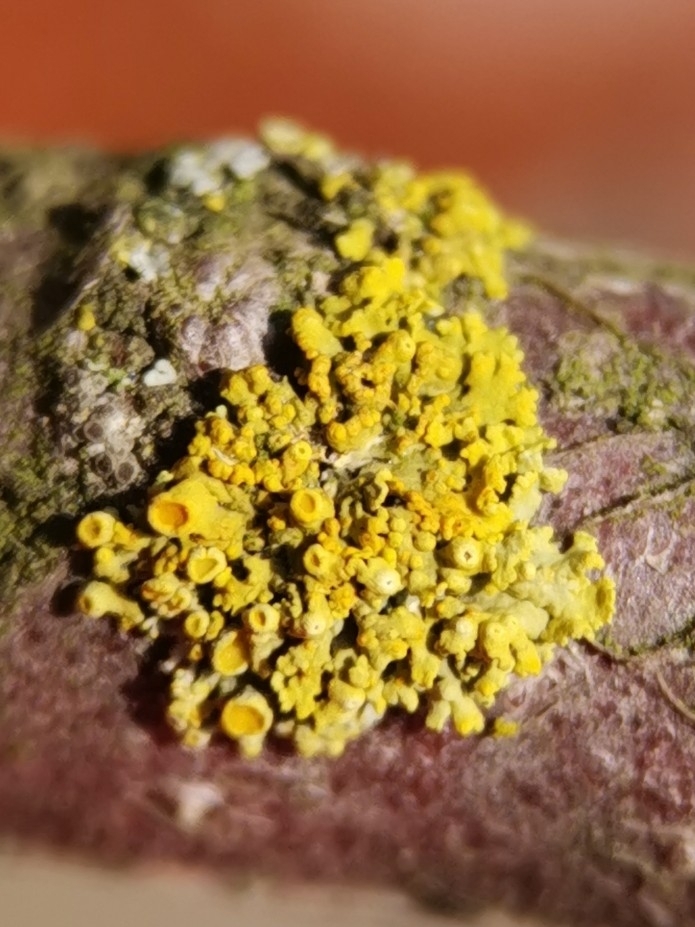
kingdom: Fungi
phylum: Ascomycota
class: Lecanoromycetes
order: Teloschistales
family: Teloschistaceae
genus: Polycauliona
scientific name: Polycauliona polycarpa
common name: Pin-cushion sunburst lichen
